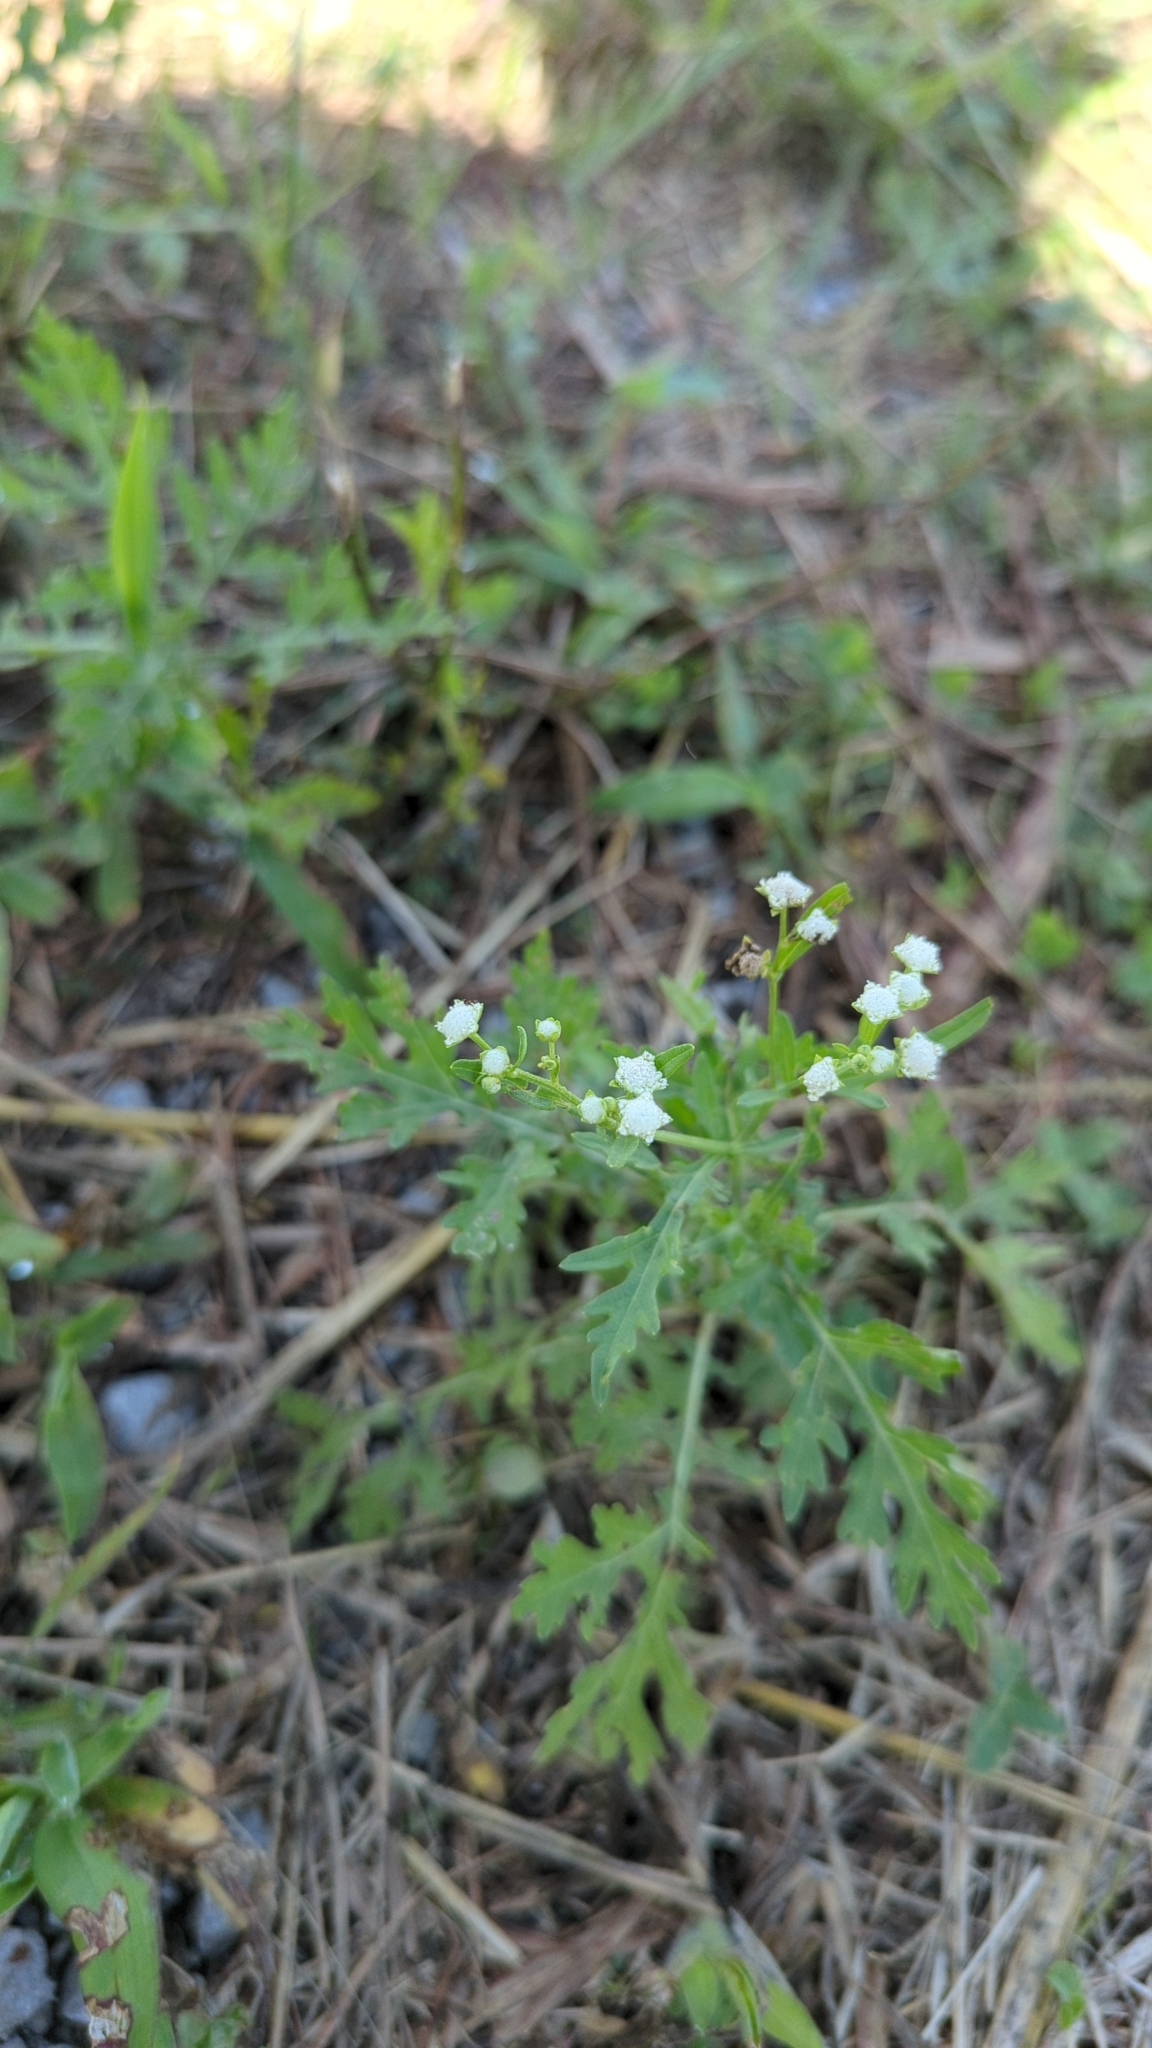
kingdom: Plantae
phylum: Tracheophyta
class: Magnoliopsida
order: Asterales
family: Asteraceae
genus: Parthenium
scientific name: Parthenium hysterophorus
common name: Santa maria feverfew
